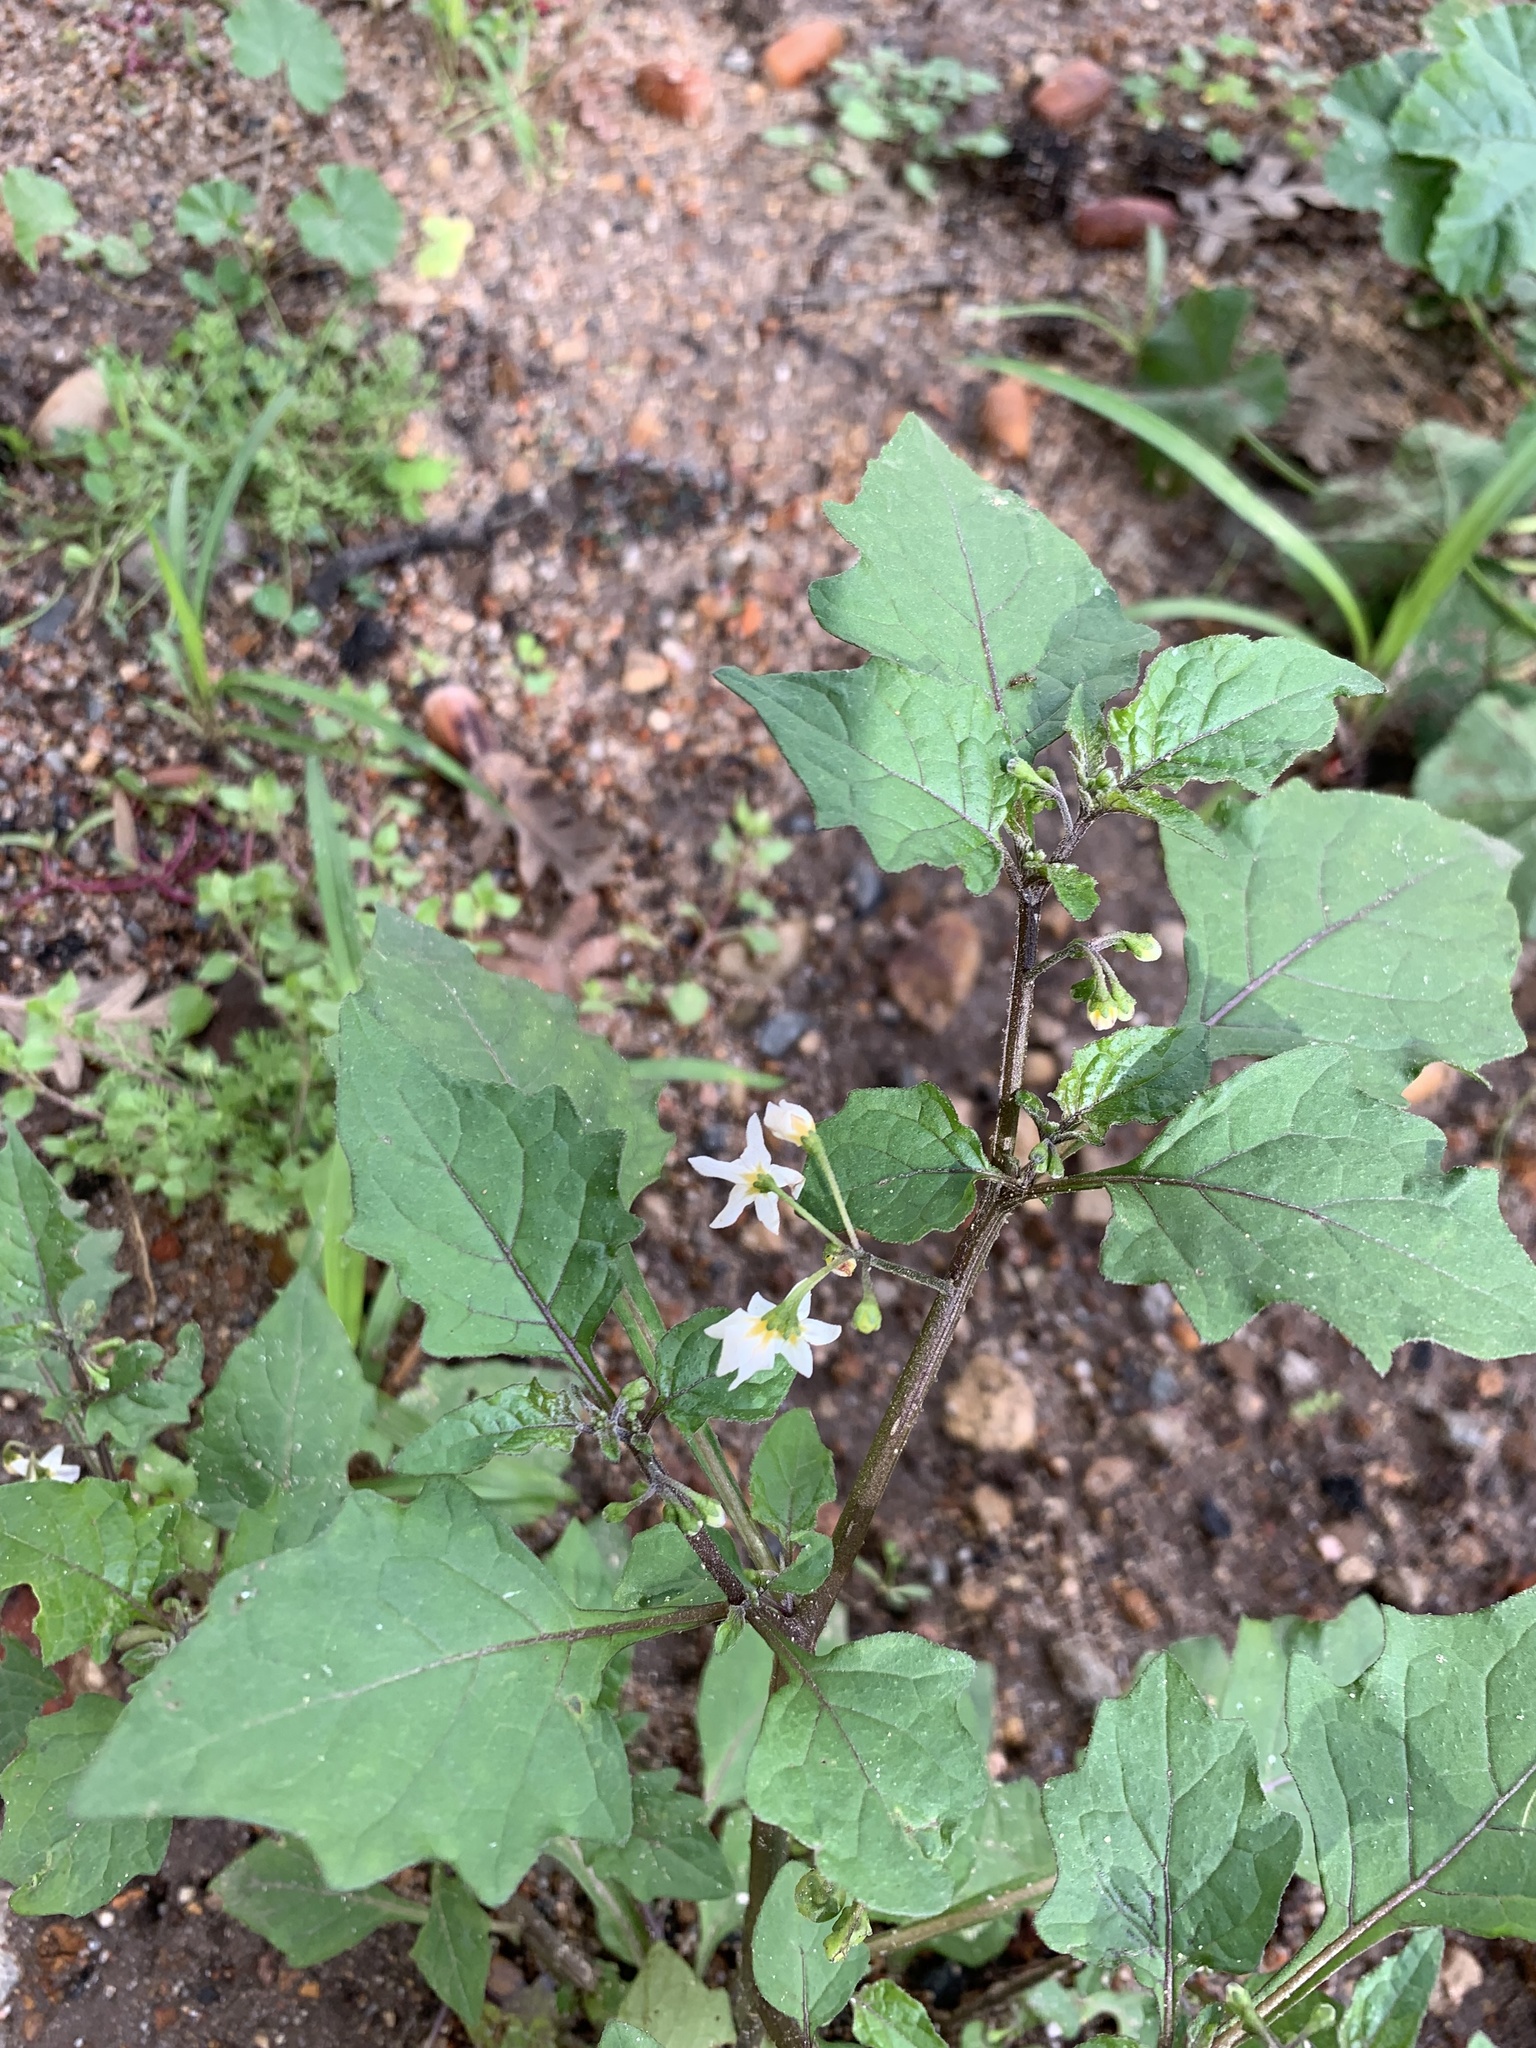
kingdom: Plantae
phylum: Tracheophyta
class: Magnoliopsida
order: Solanales
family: Solanaceae
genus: Solanum
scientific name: Solanum nigrum
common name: Black nightshade
